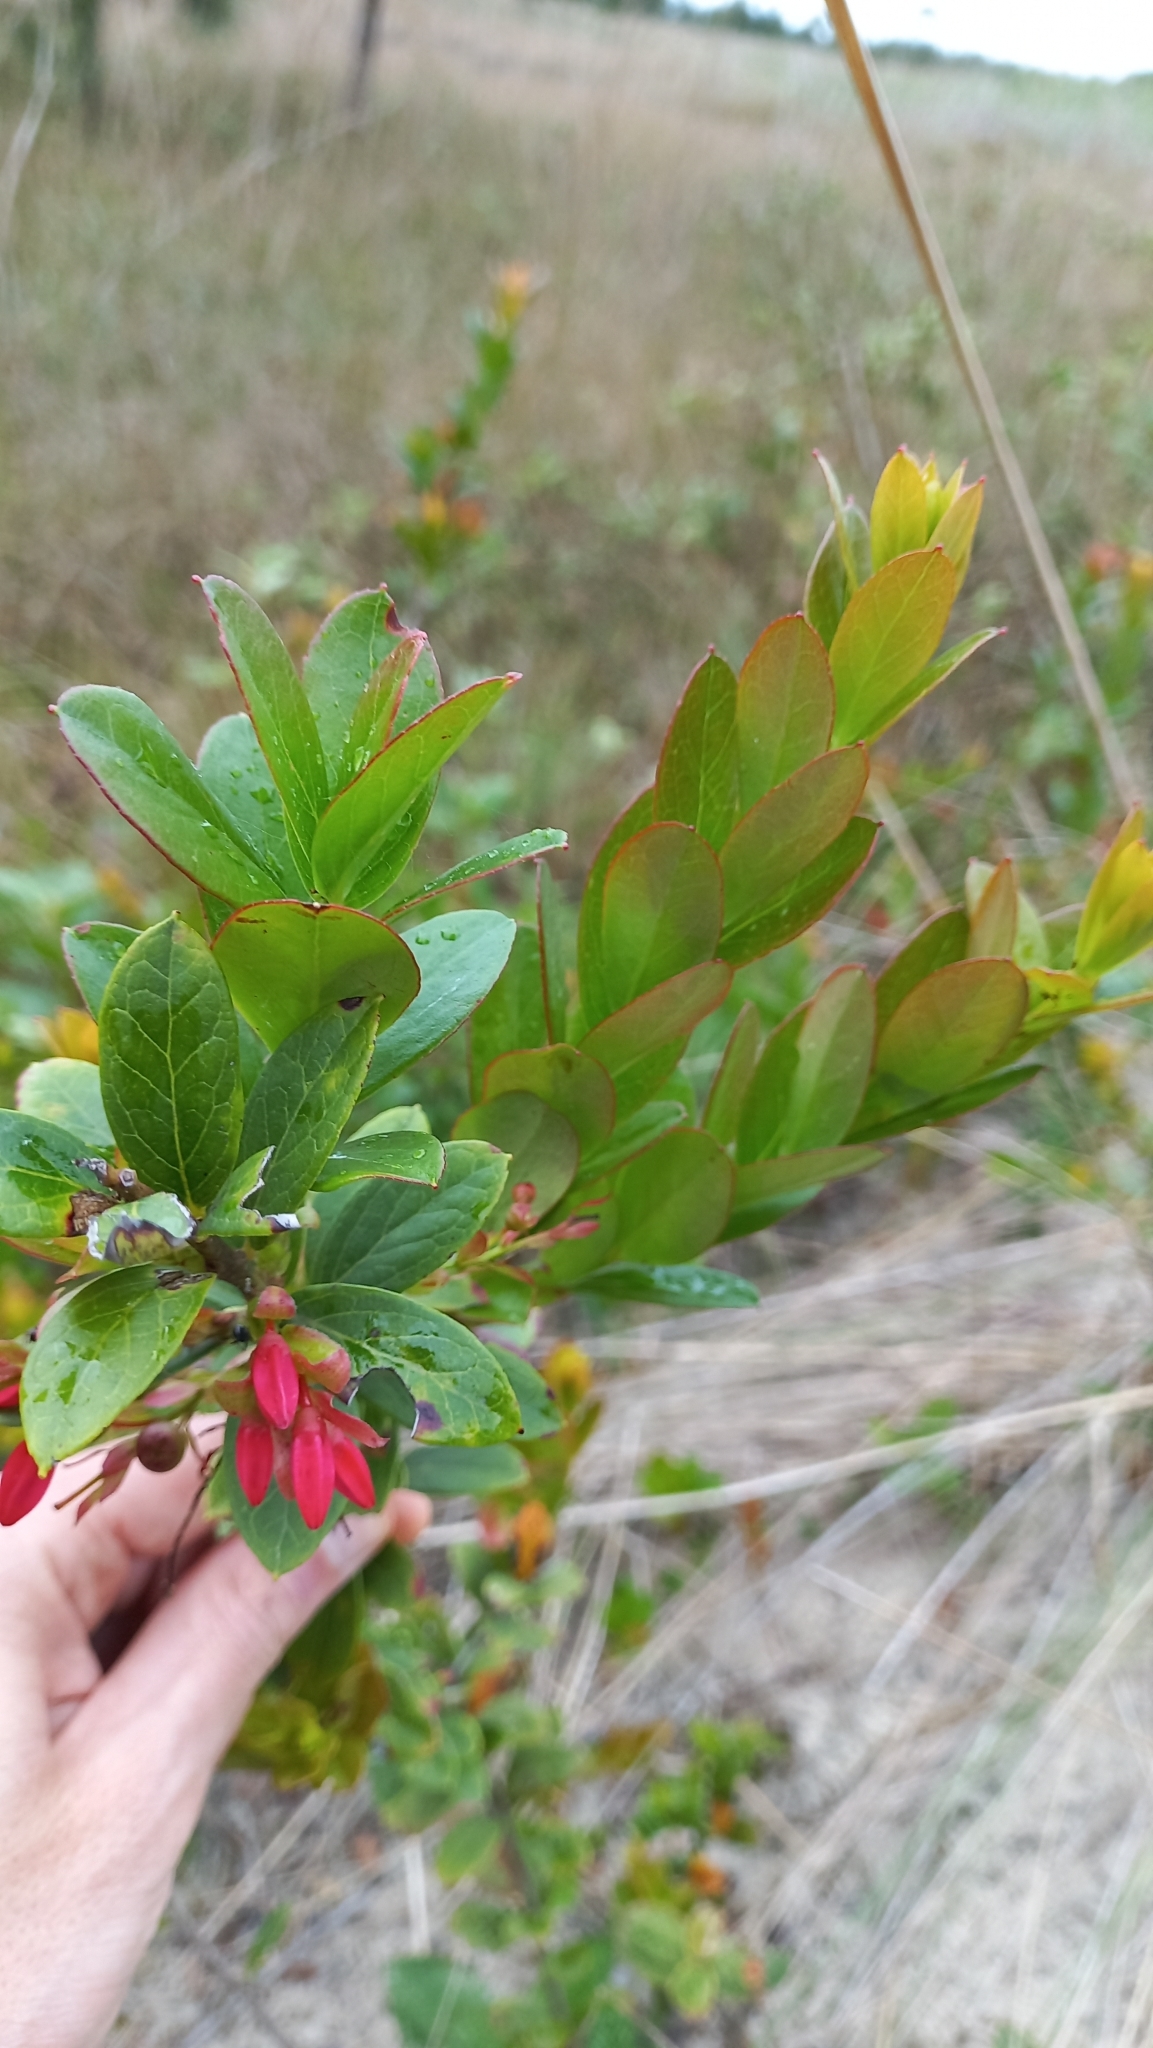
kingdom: Plantae
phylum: Tracheophyta
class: Magnoliopsida
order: Ericales
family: Ericaceae
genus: Gaylussacia
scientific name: Gaylussacia brasiliensis
